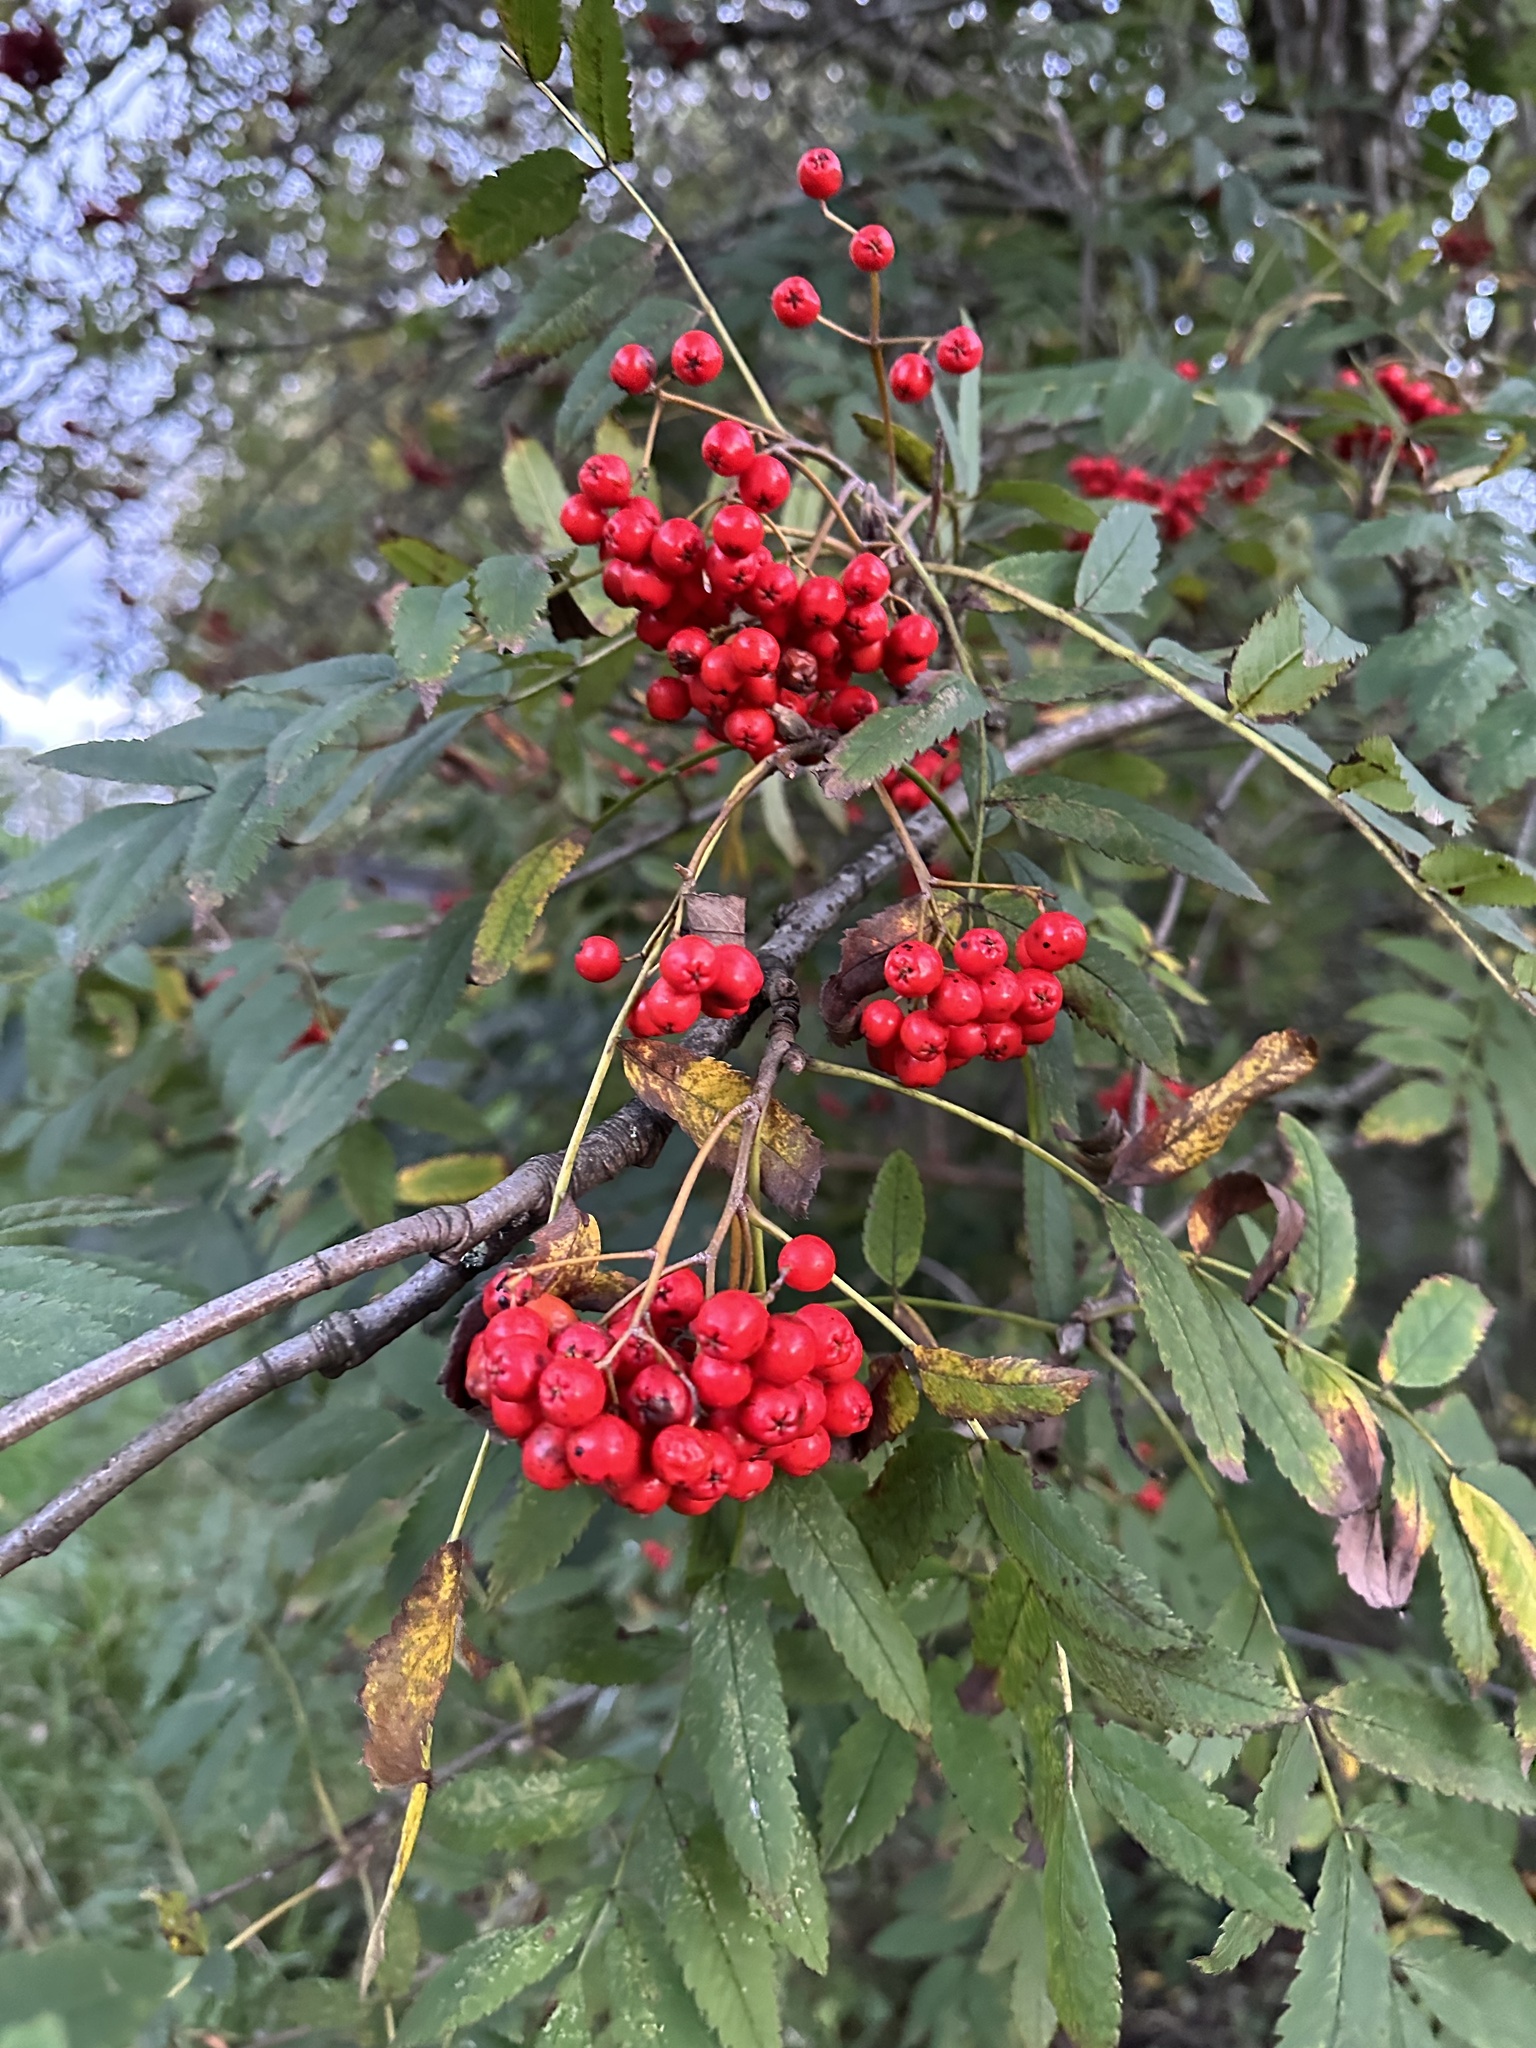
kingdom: Plantae
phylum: Tracheophyta
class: Magnoliopsida
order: Rosales
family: Rosaceae
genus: Sorbus
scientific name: Sorbus aucuparia
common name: Rowan
